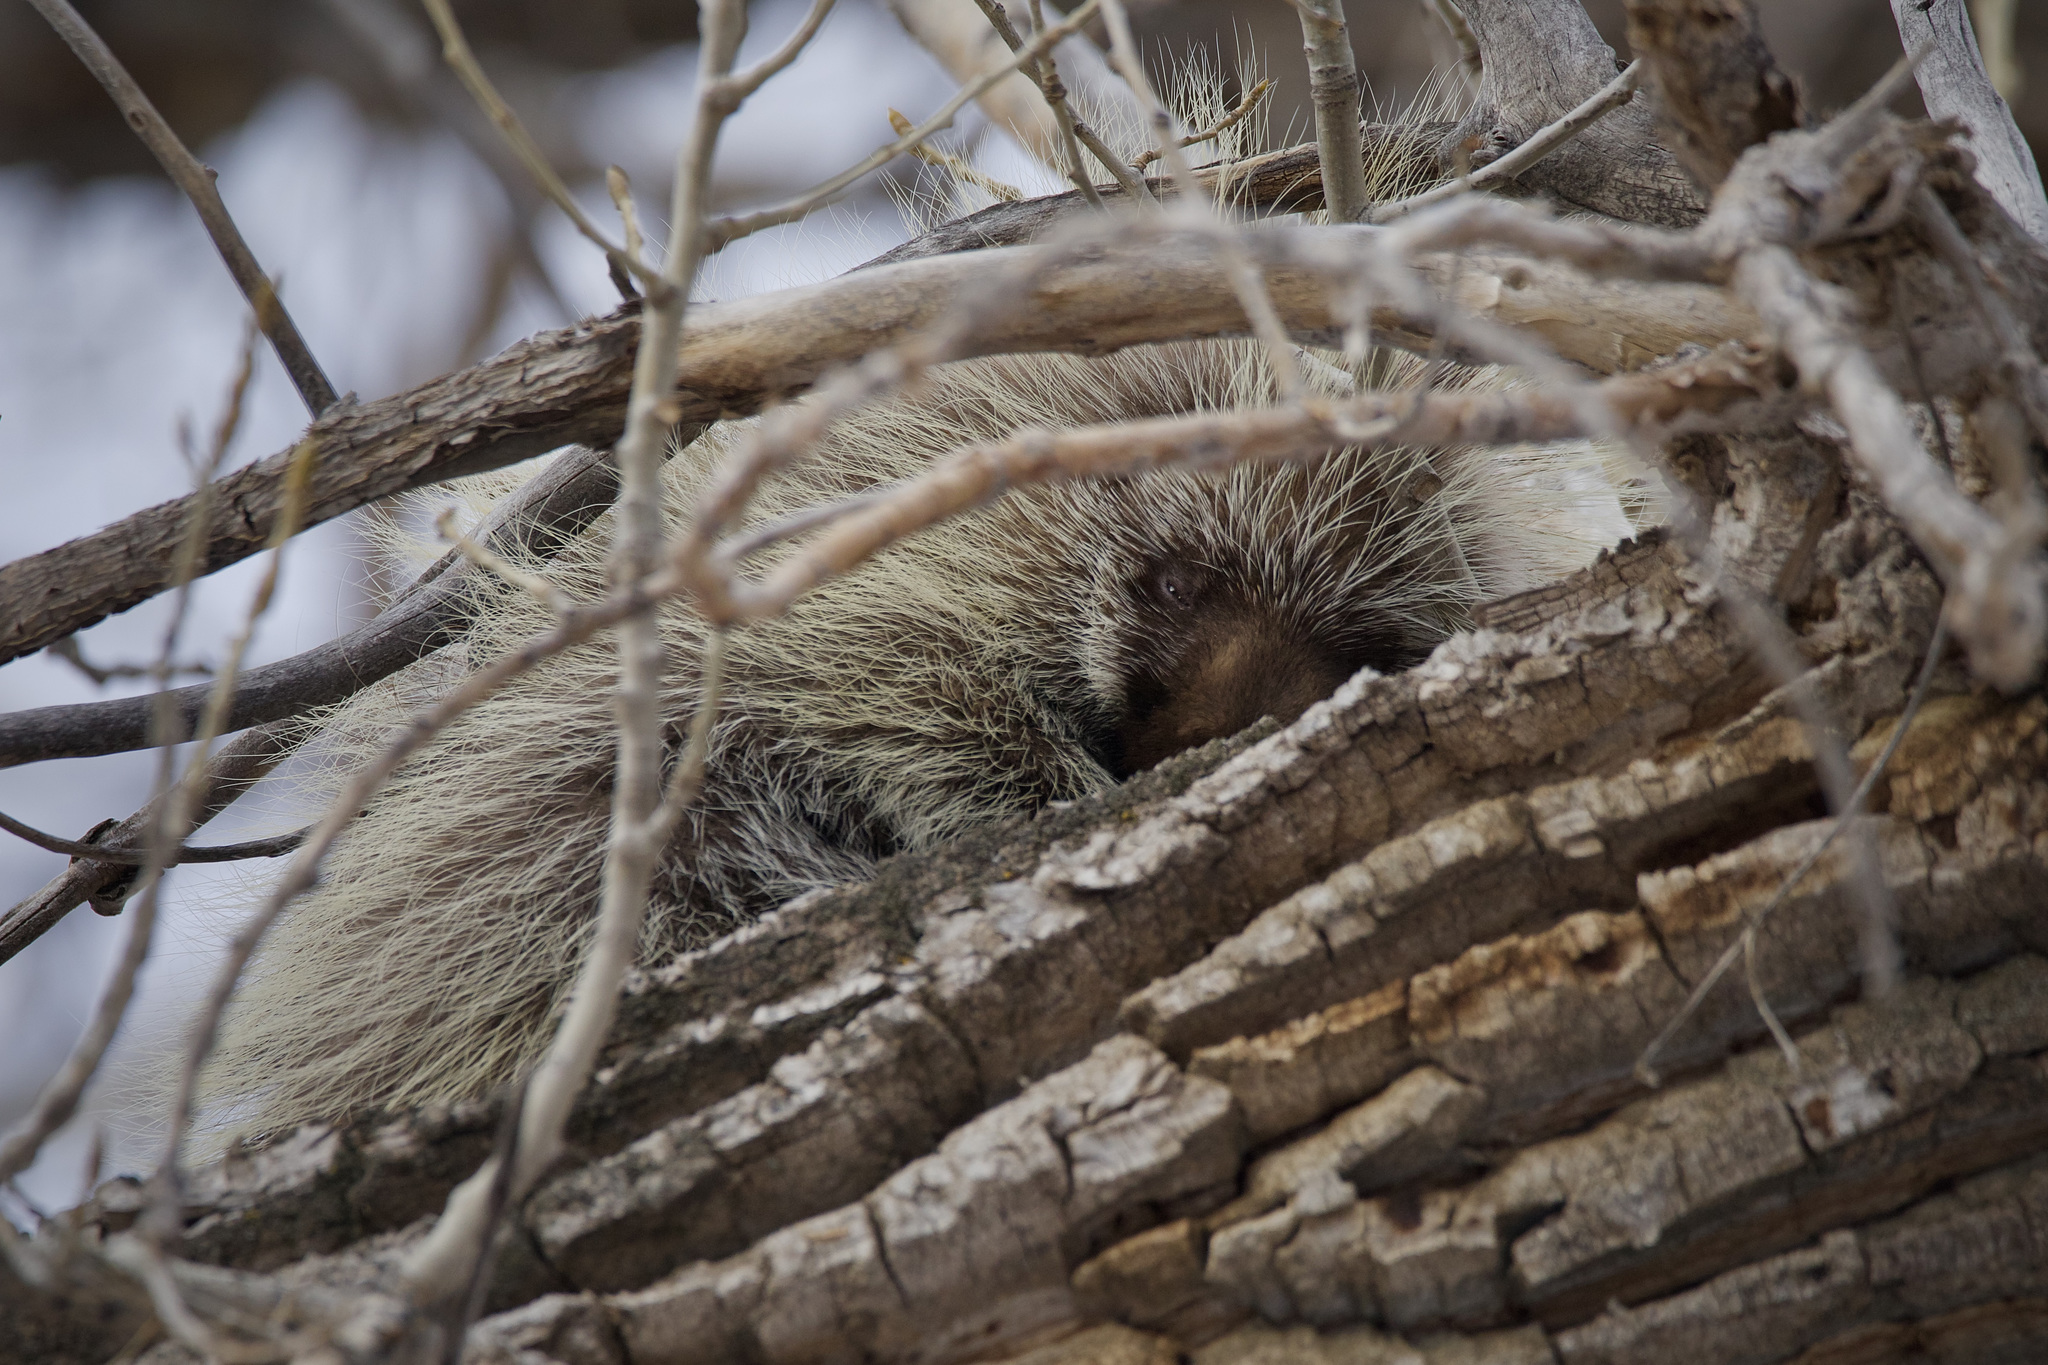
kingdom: Animalia
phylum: Chordata
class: Mammalia
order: Rodentia
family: Erethizontidae
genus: Erethizon
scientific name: Erethizon dorsatus
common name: North american porcupine
